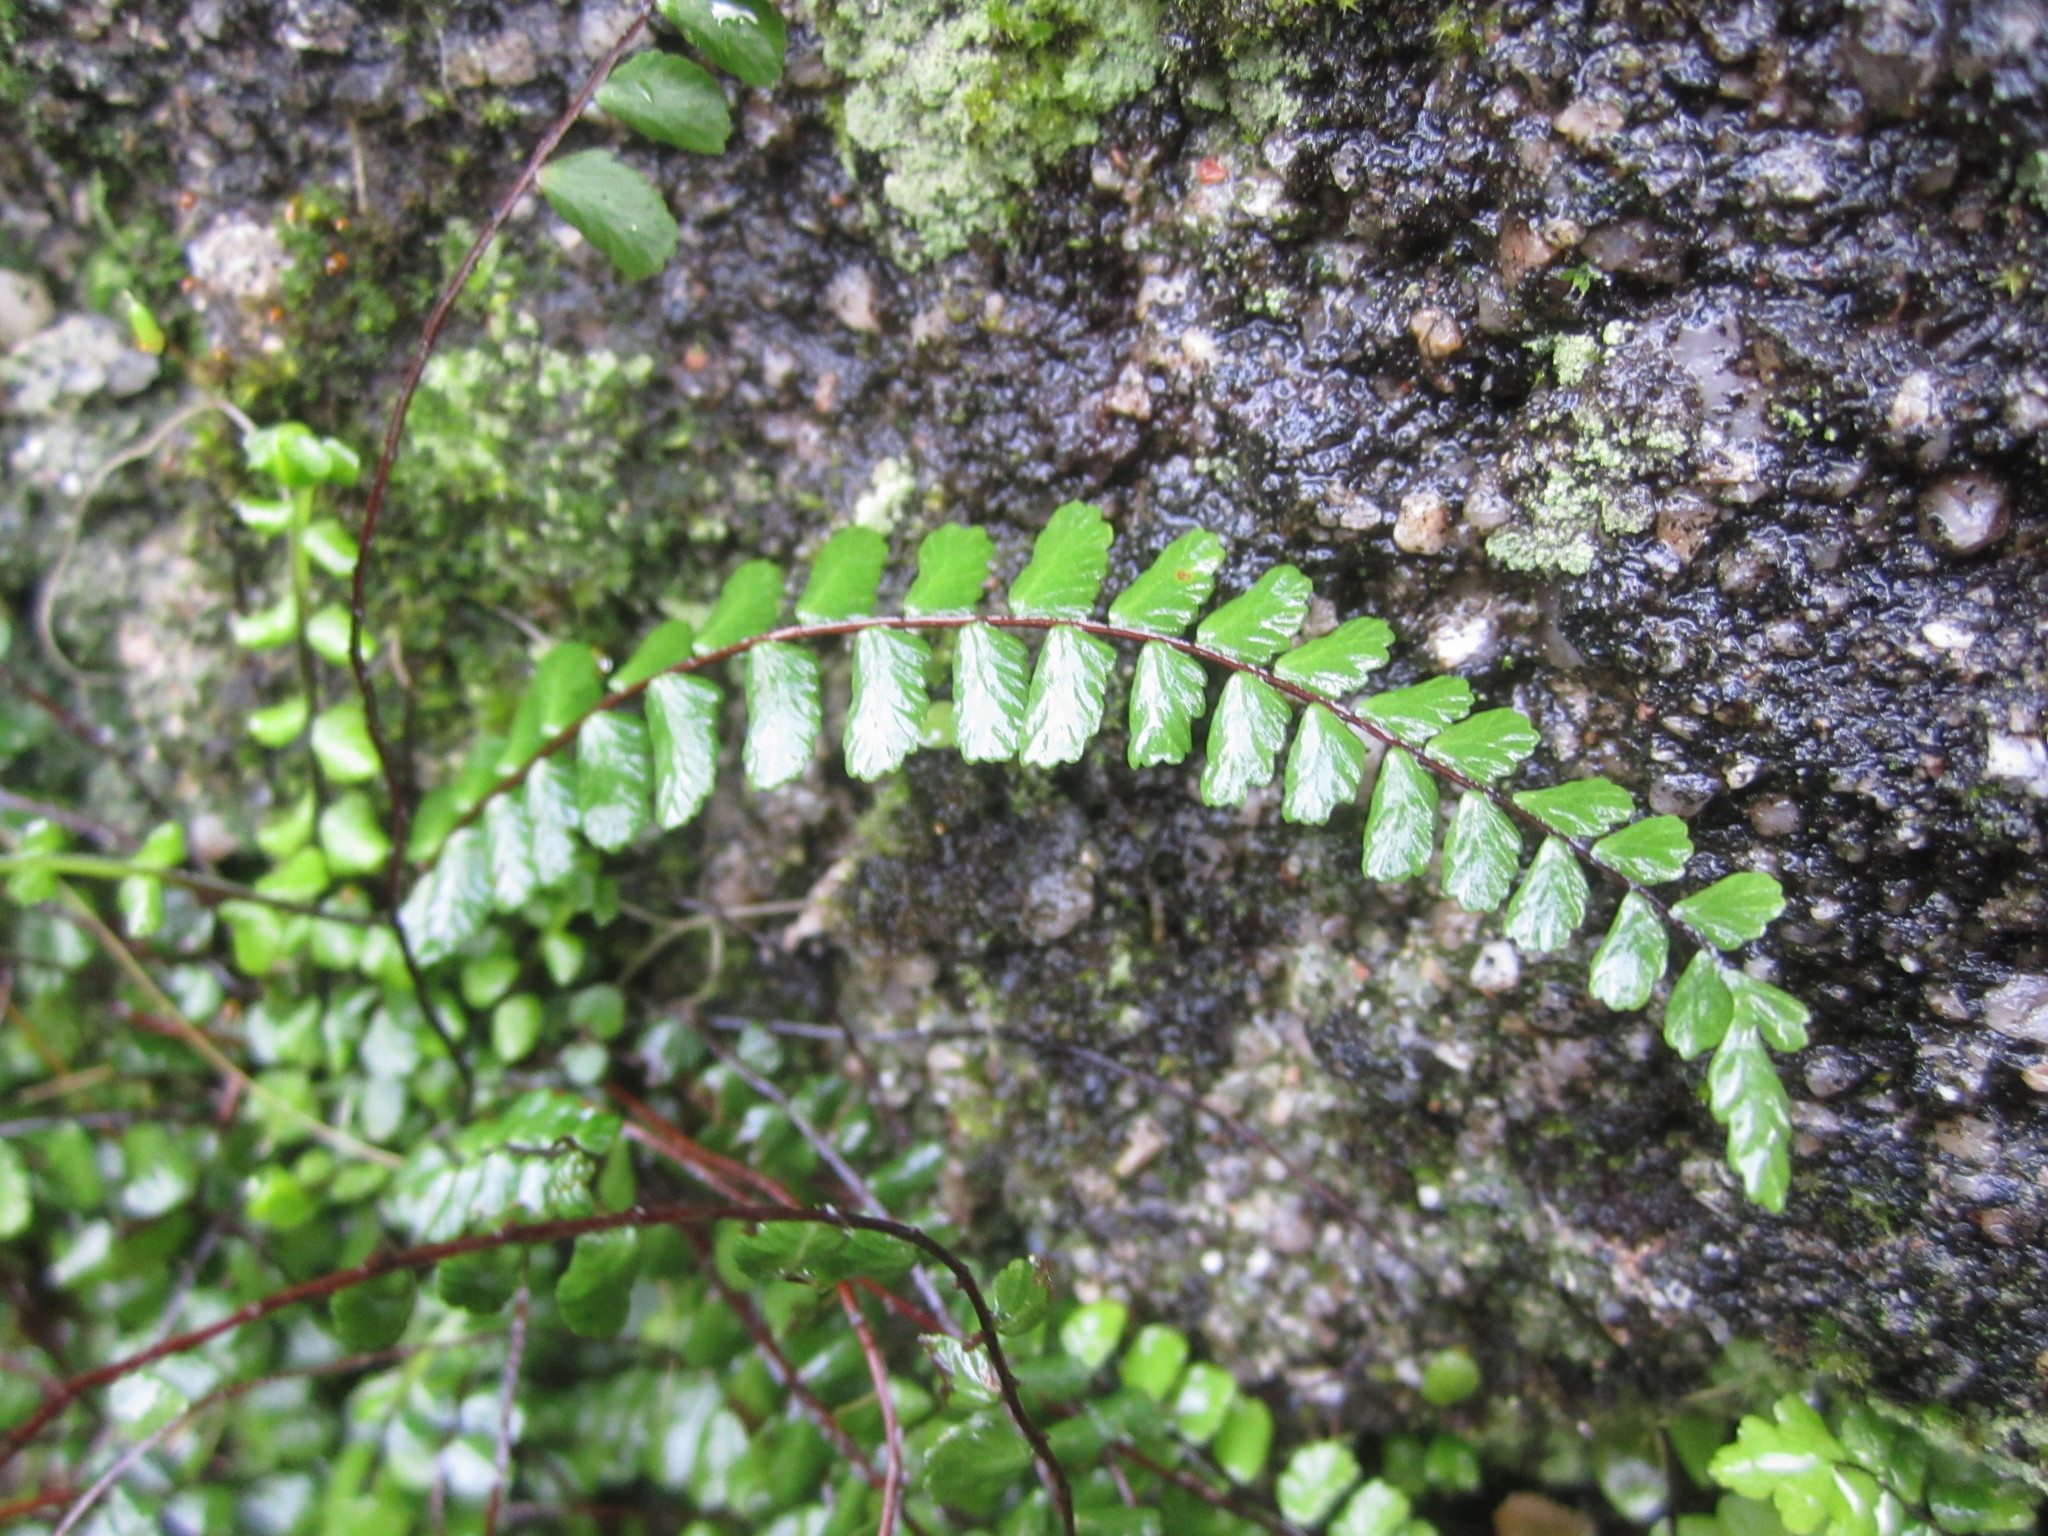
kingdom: Plantae
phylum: Tracheophyta
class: Polypodiopsida
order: Polypodiales
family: Aspleniaceae
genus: Asplenium
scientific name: Asplenium quadrivalens
